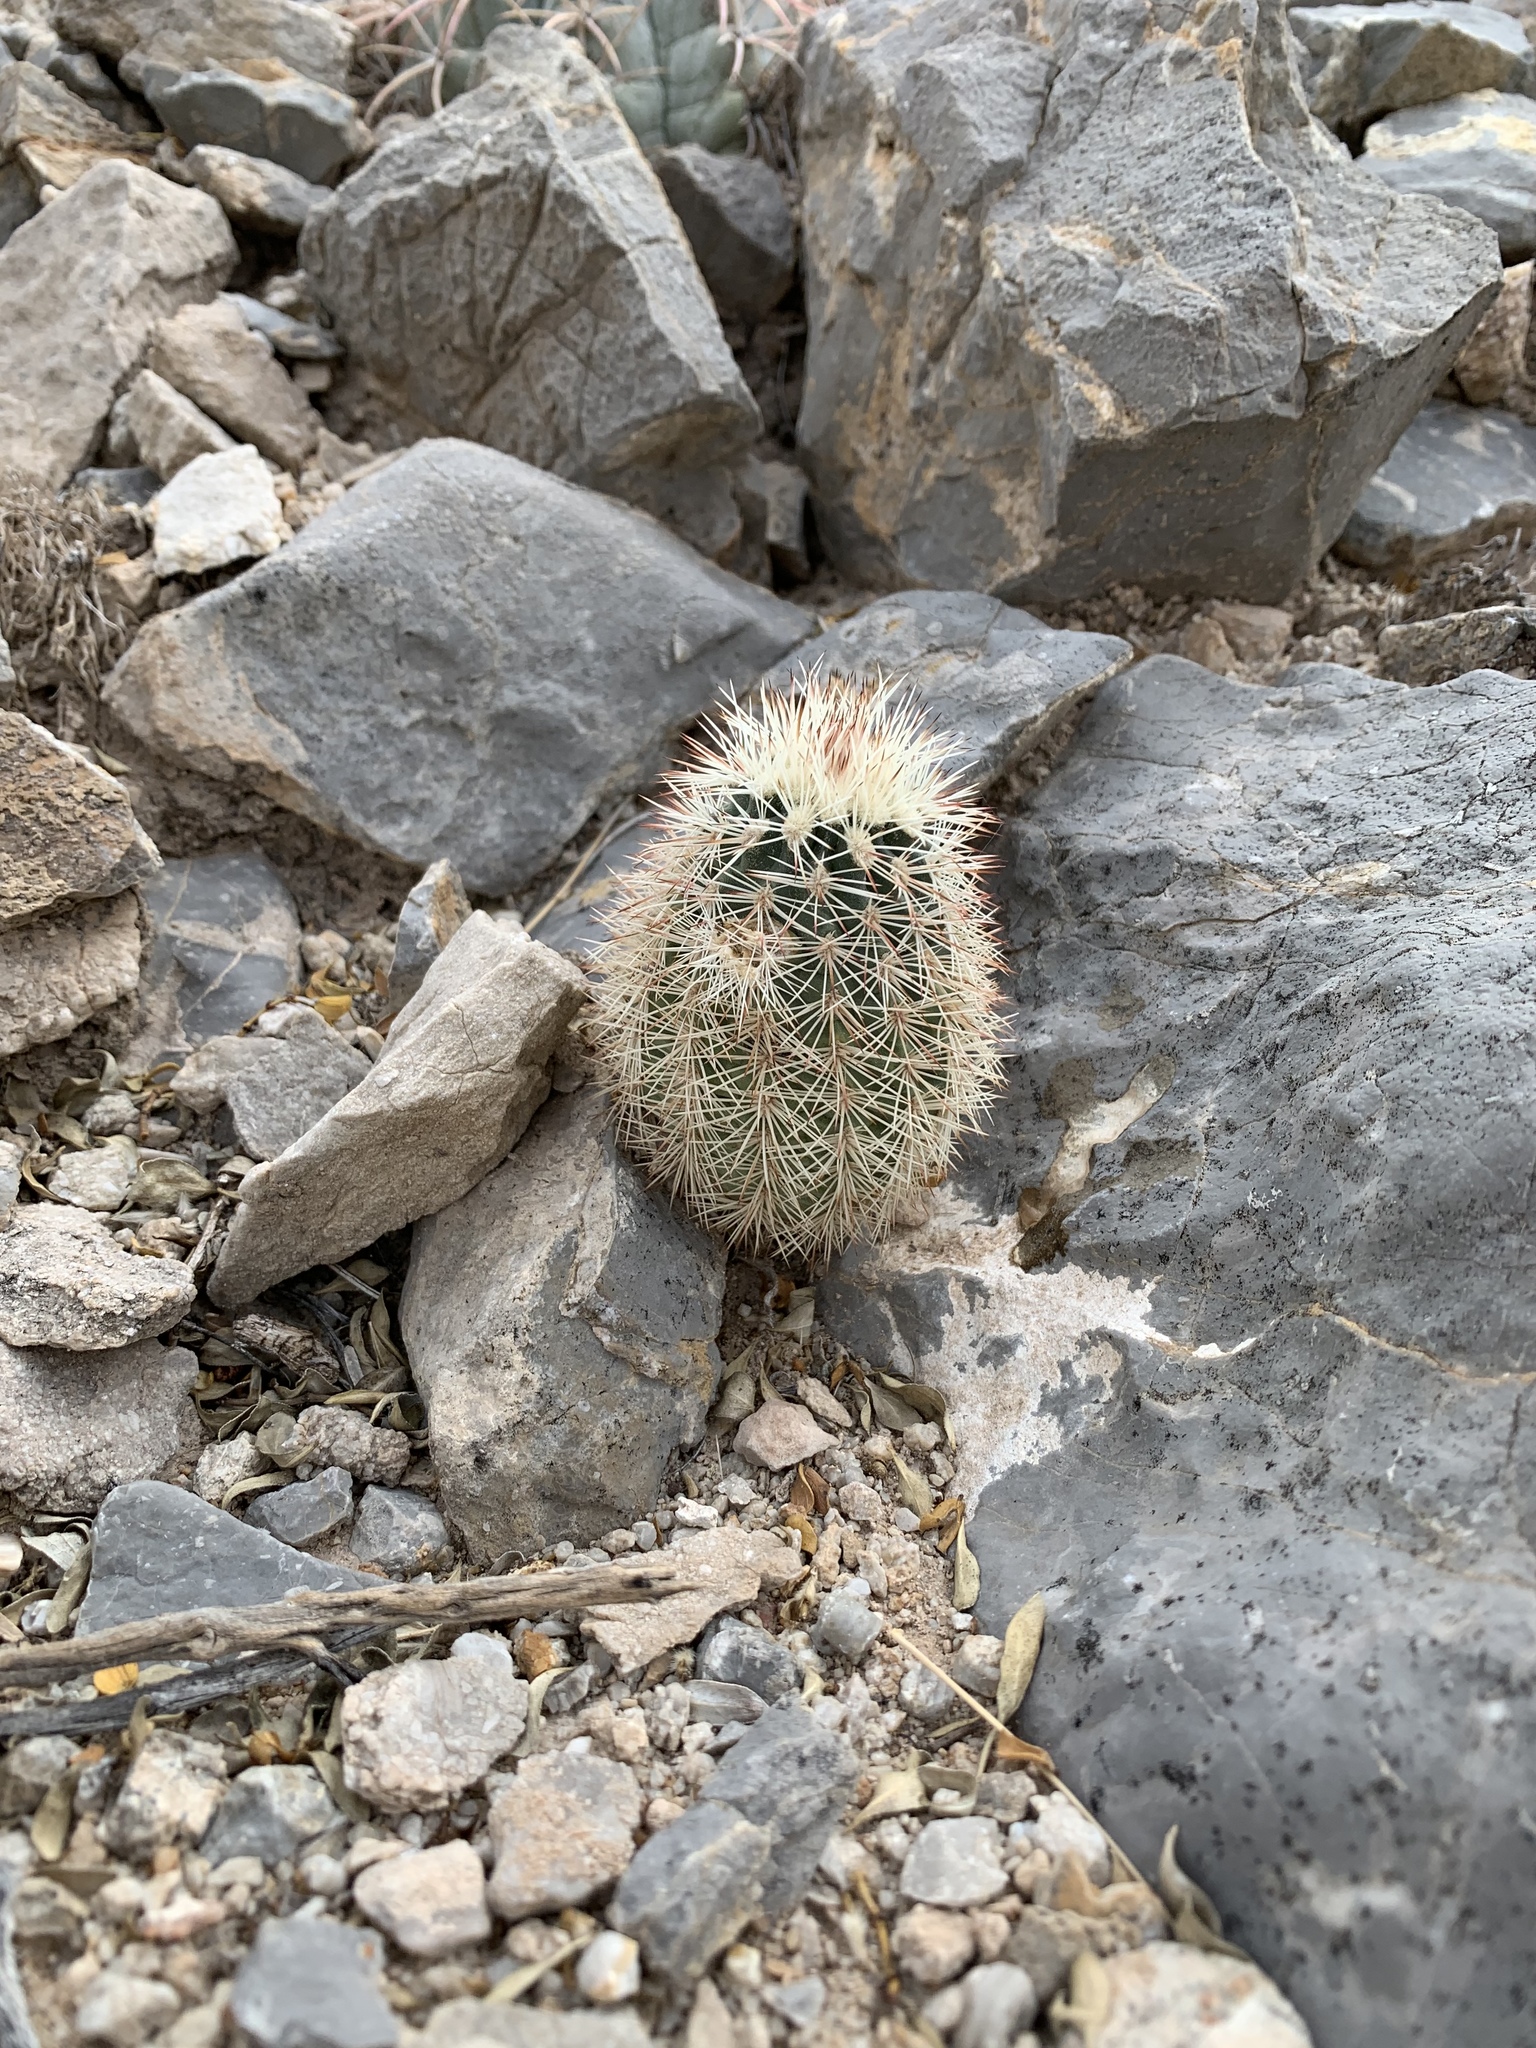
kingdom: Plantae
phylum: Tracheophyta
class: Magnoliopsida
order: Caryophyllales
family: Cactaceae
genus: Echinocereus
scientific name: Echinocereus dasyacanthus
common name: Spiny hedgehog cactus
